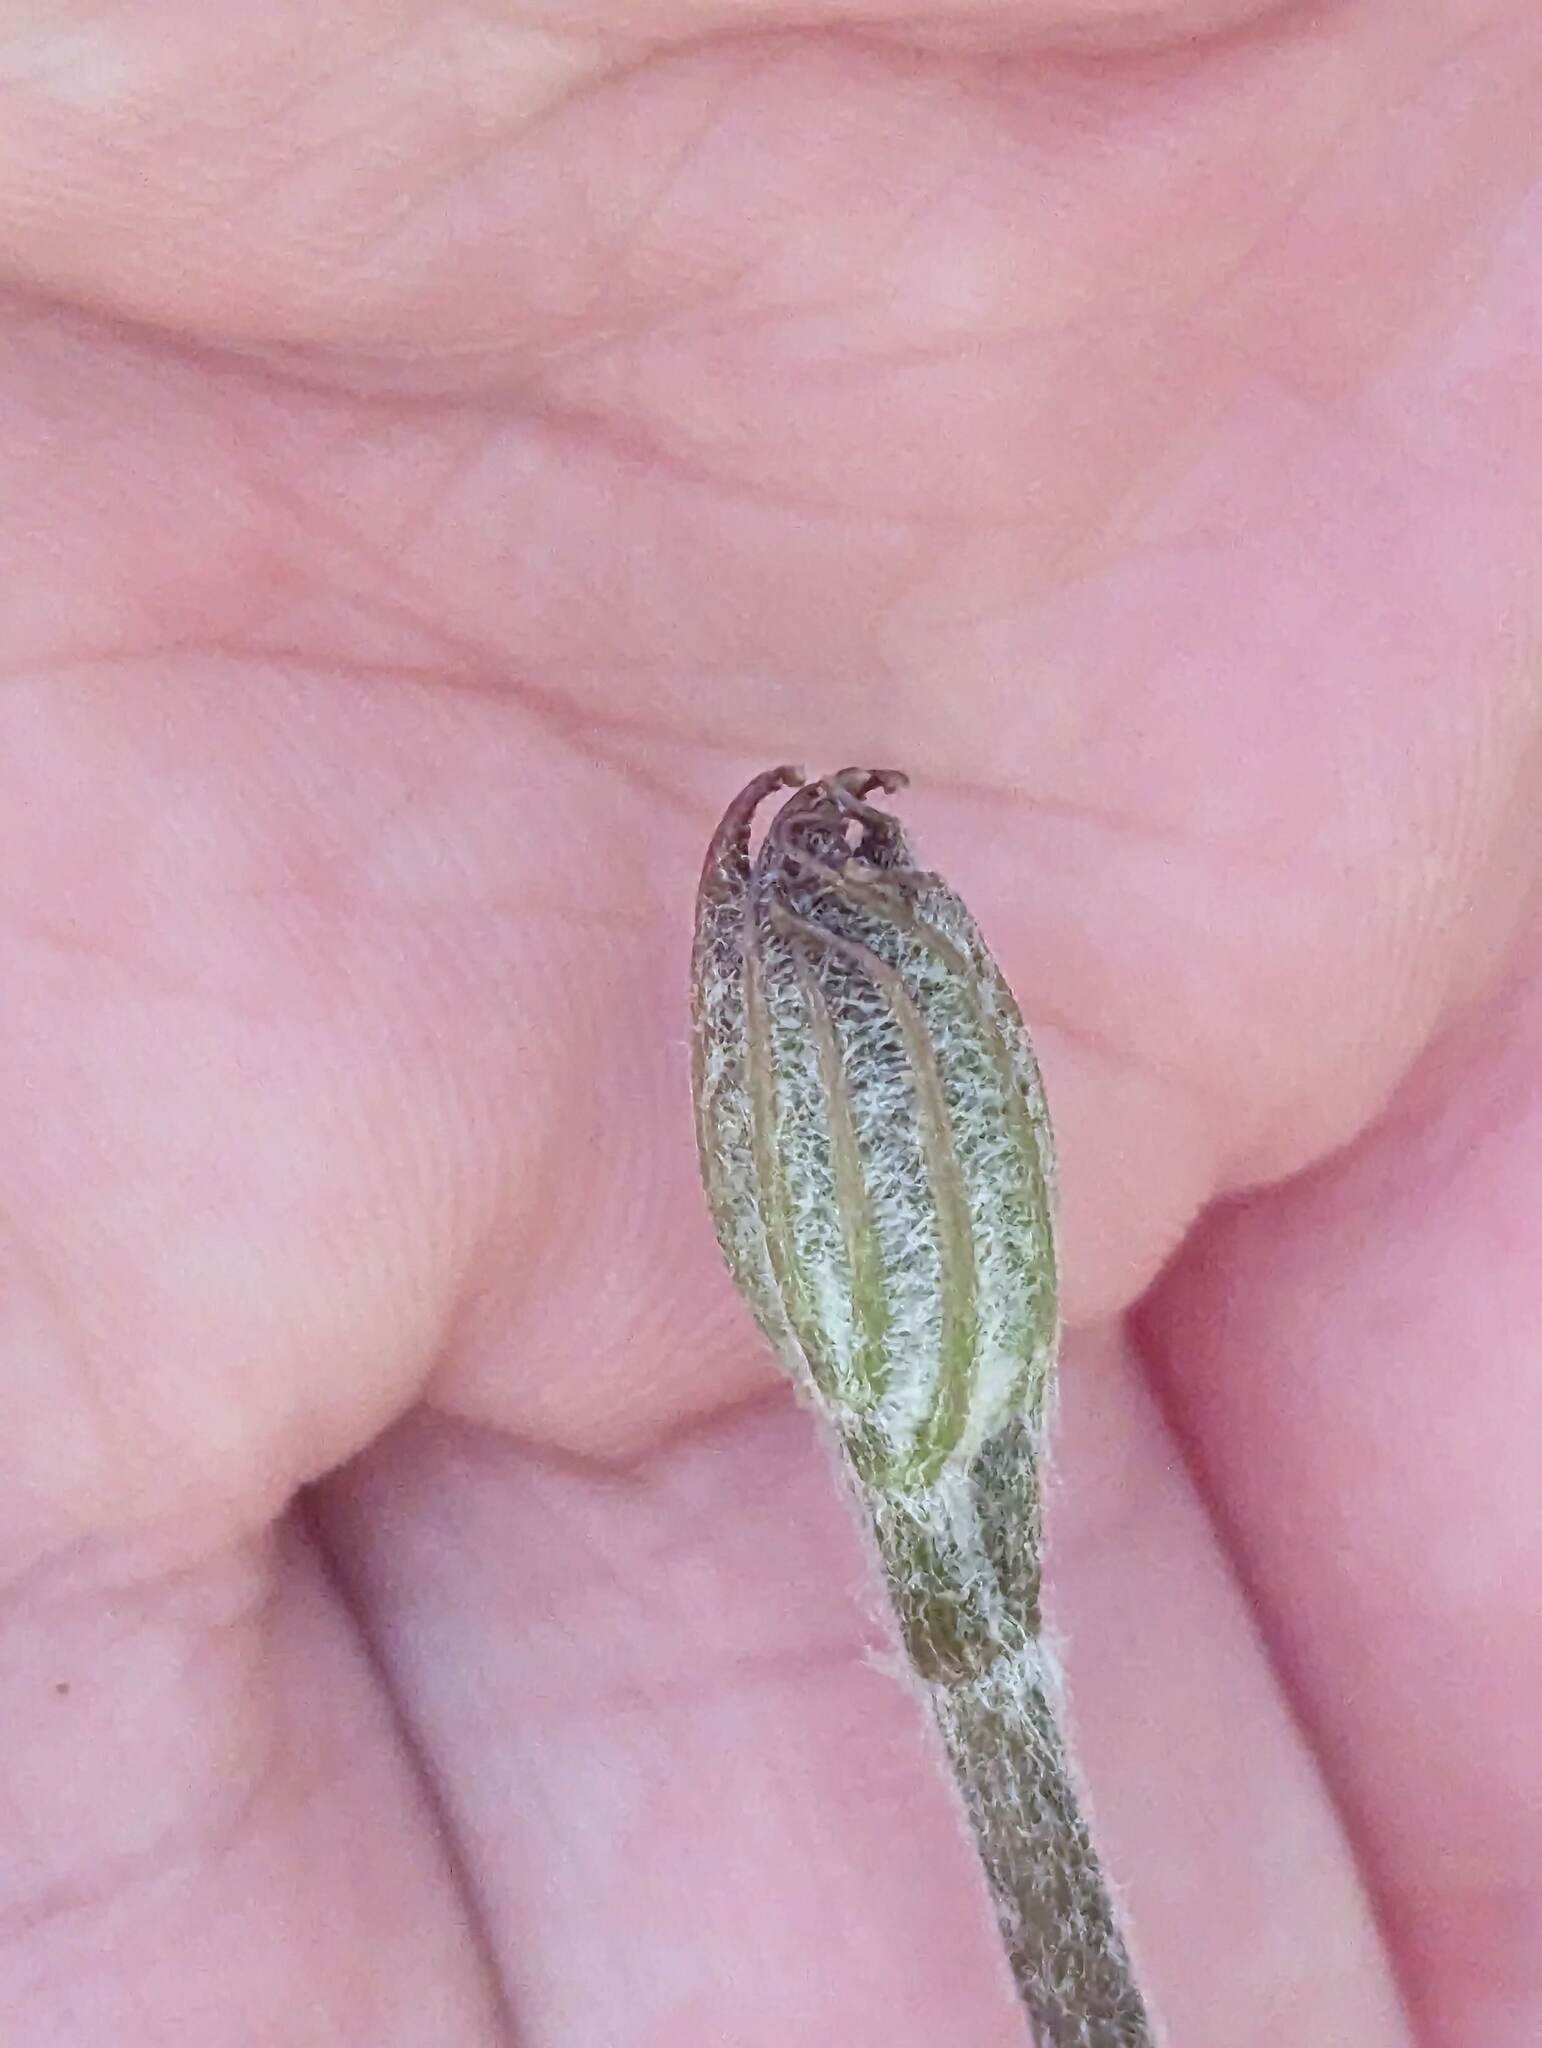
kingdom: Plantae
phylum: Tracheophyta
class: Magnoliopsida
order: Apiales
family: Araliaceae
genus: Aralia
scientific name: Aralia nudicaulis
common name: Wild sarsaparilla
